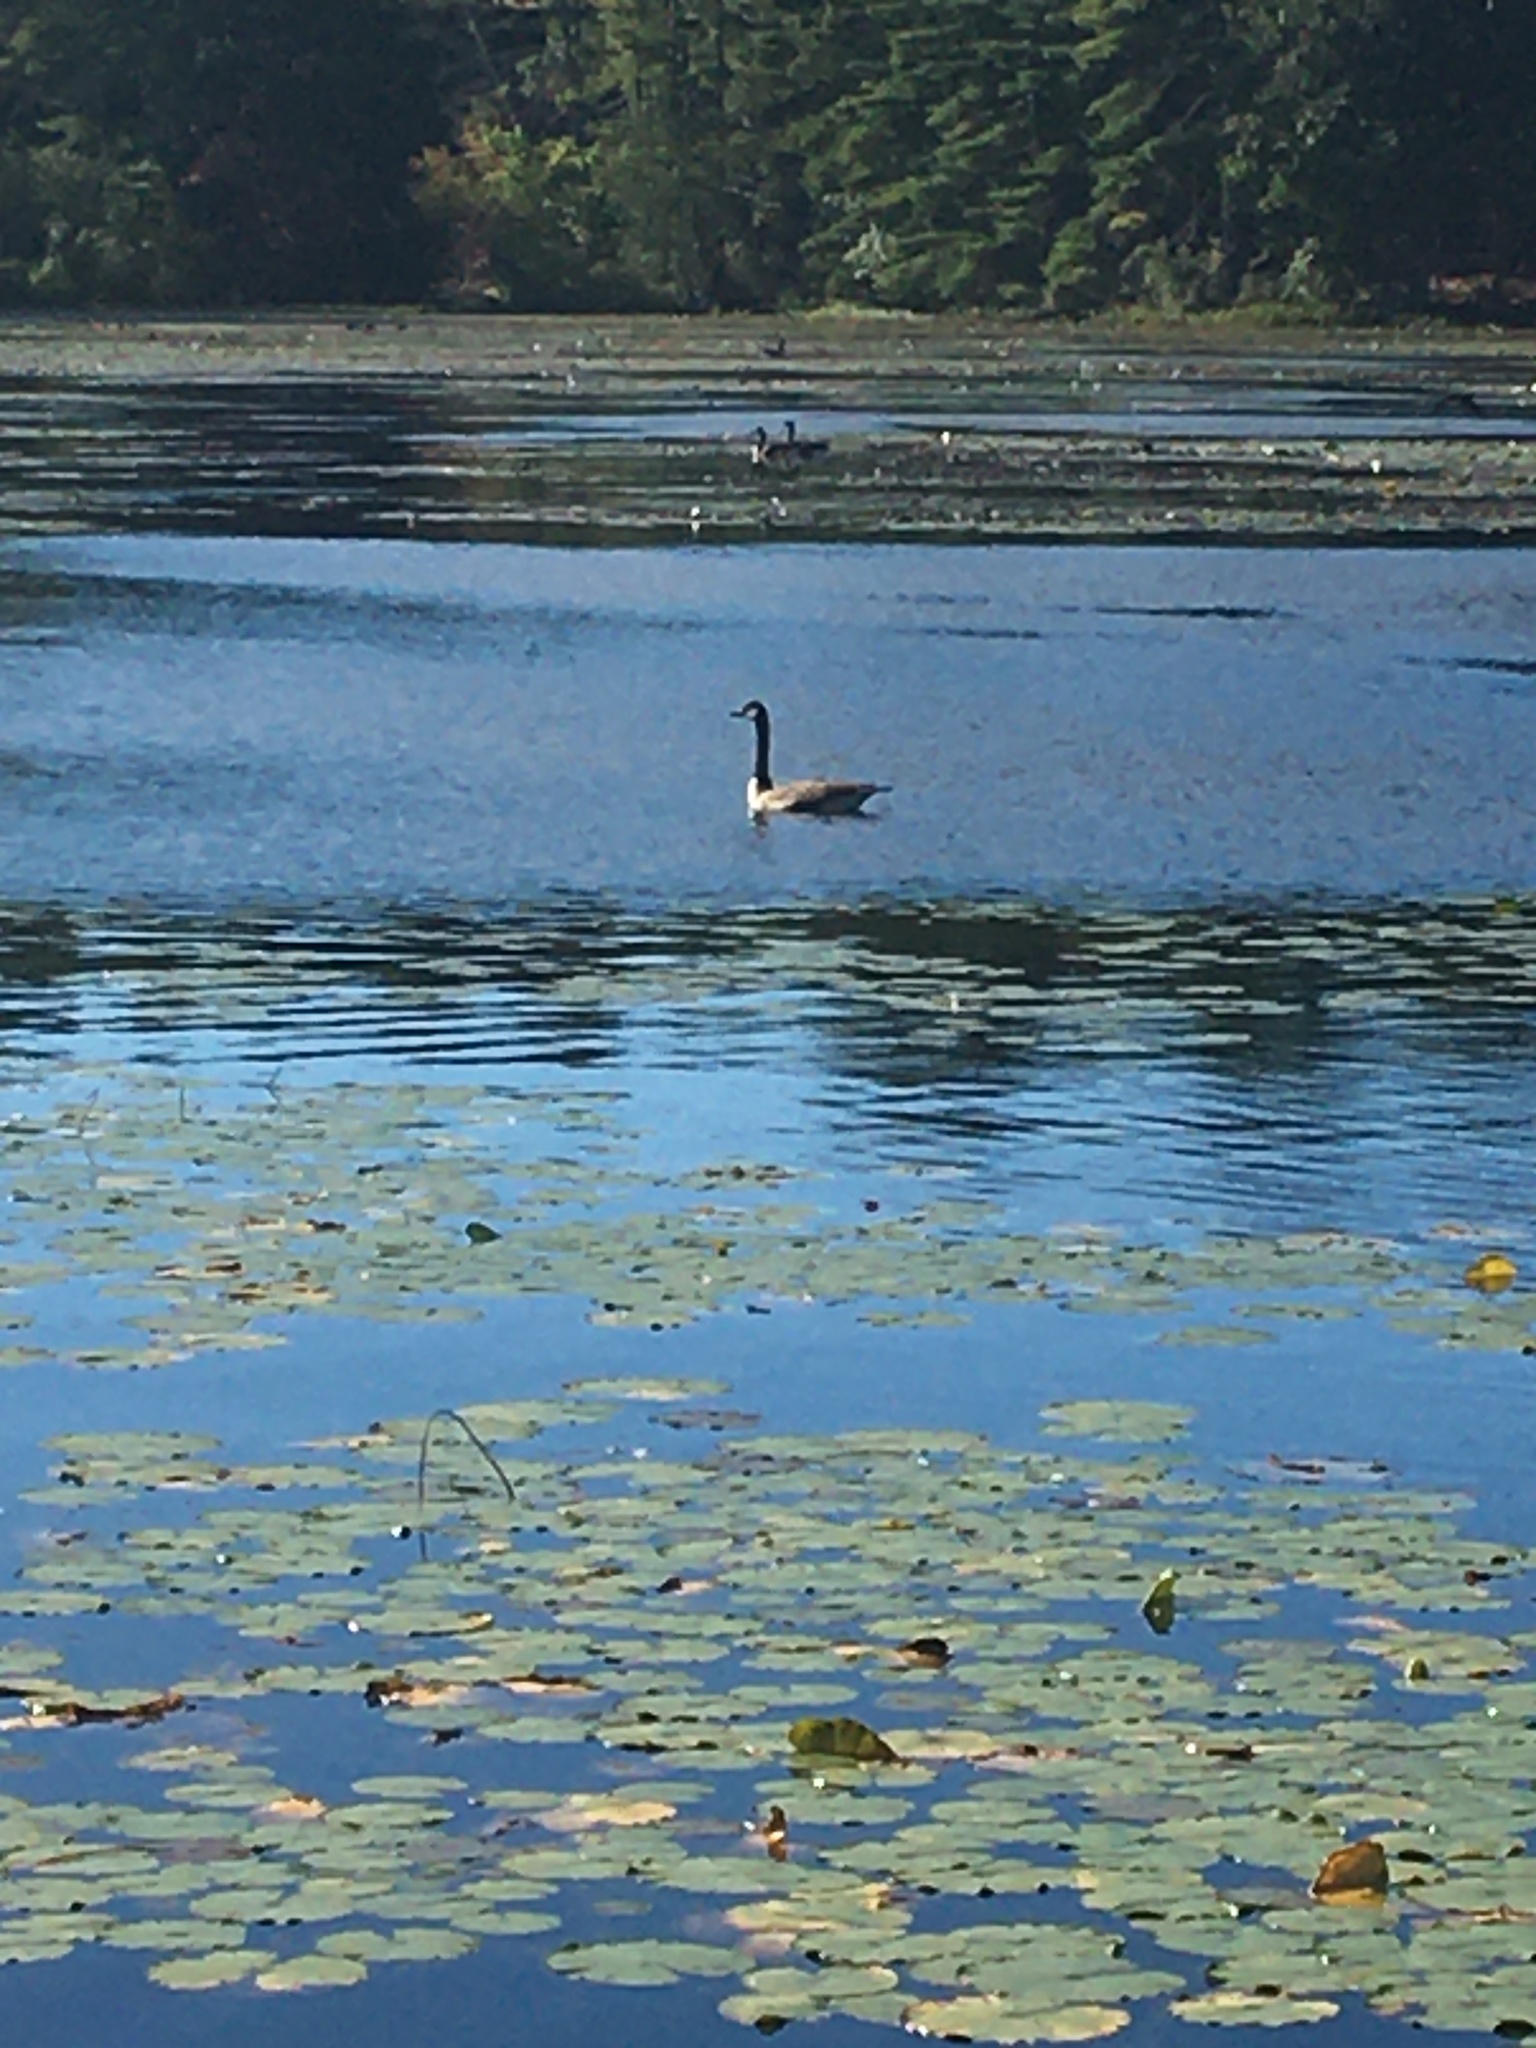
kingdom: Animalia
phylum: Chordata
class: Aves
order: Anseriformes
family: Anatidae
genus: Branta
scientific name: Branta canadensis
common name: Canada goose
